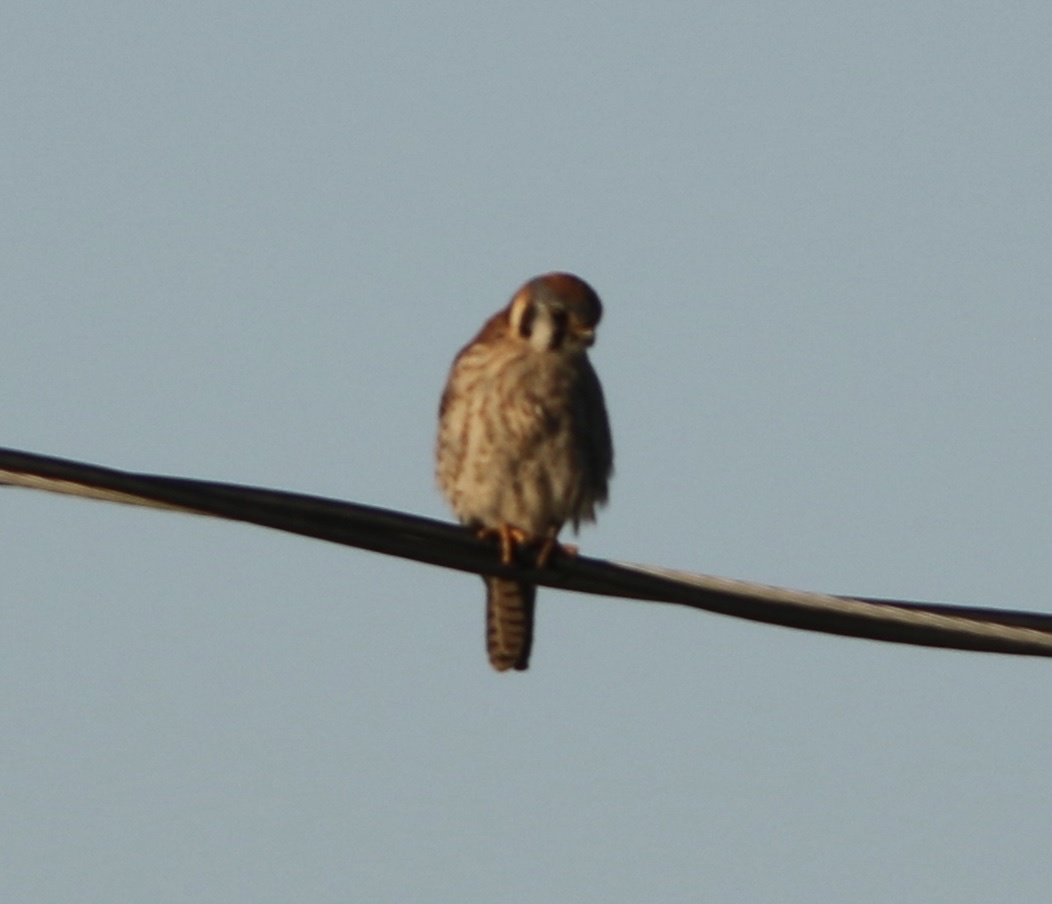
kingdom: Animalia
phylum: Chordata
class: Aves
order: Falconiformes
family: Falconidae
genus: Falco
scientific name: Falco sparverius
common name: American kestrel
